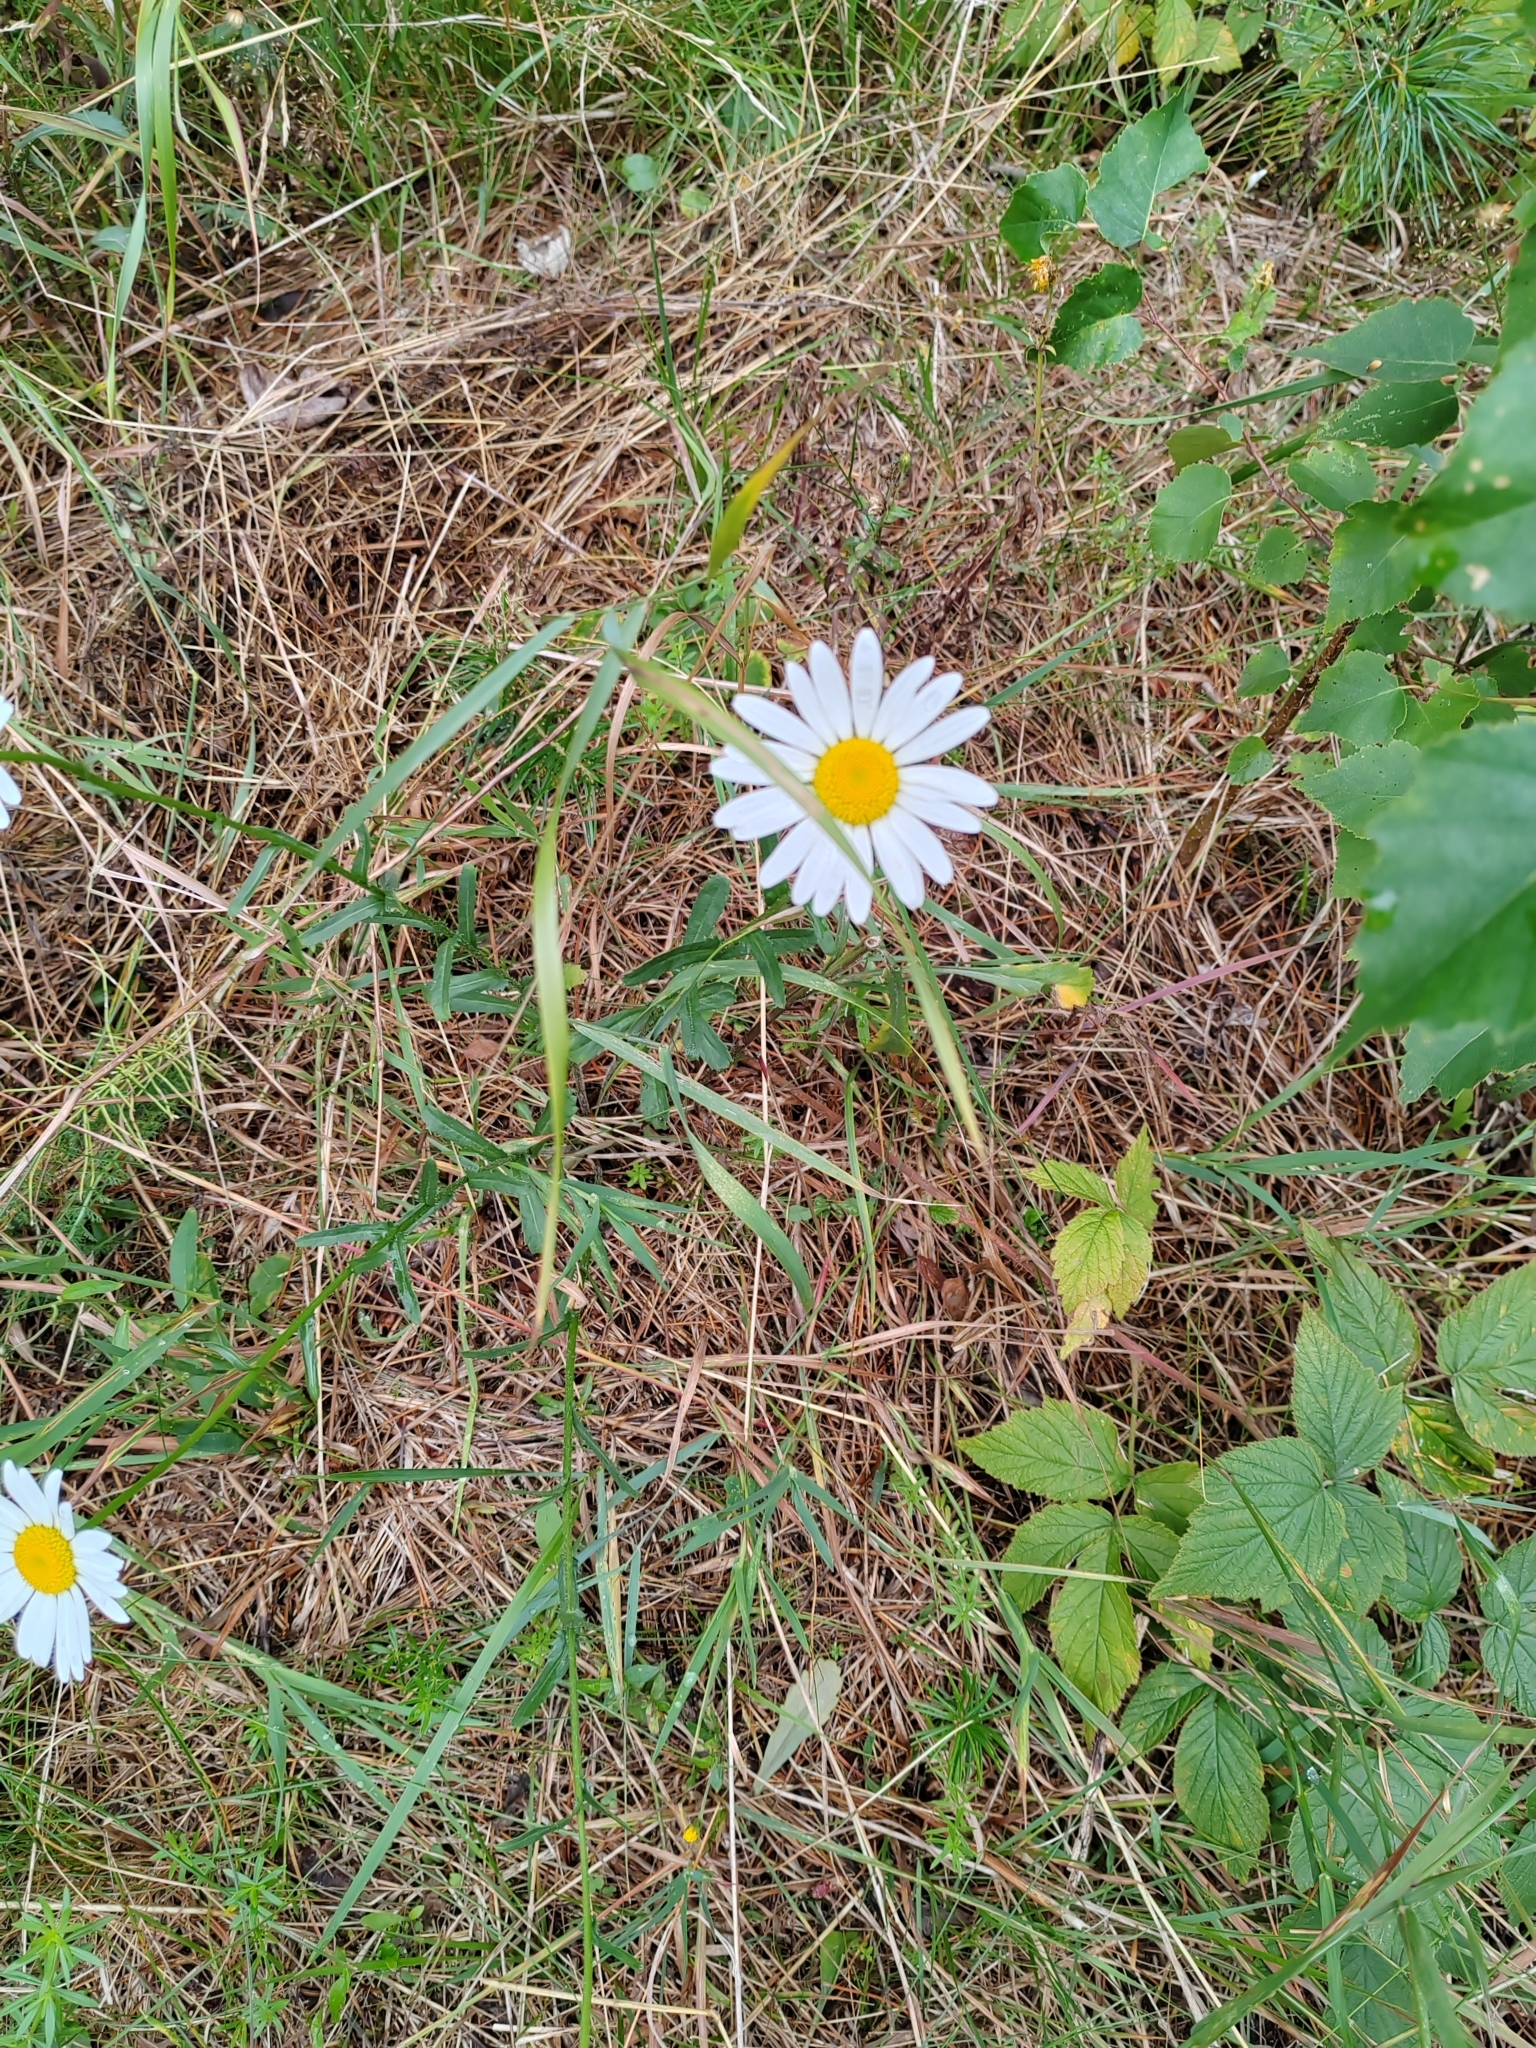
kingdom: Plantae
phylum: Tracheophyta
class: Magnoliopsida
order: Asterales
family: Asteraceae
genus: Leucanthemum
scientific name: Leucanthemum ircutianum
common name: Daisy
